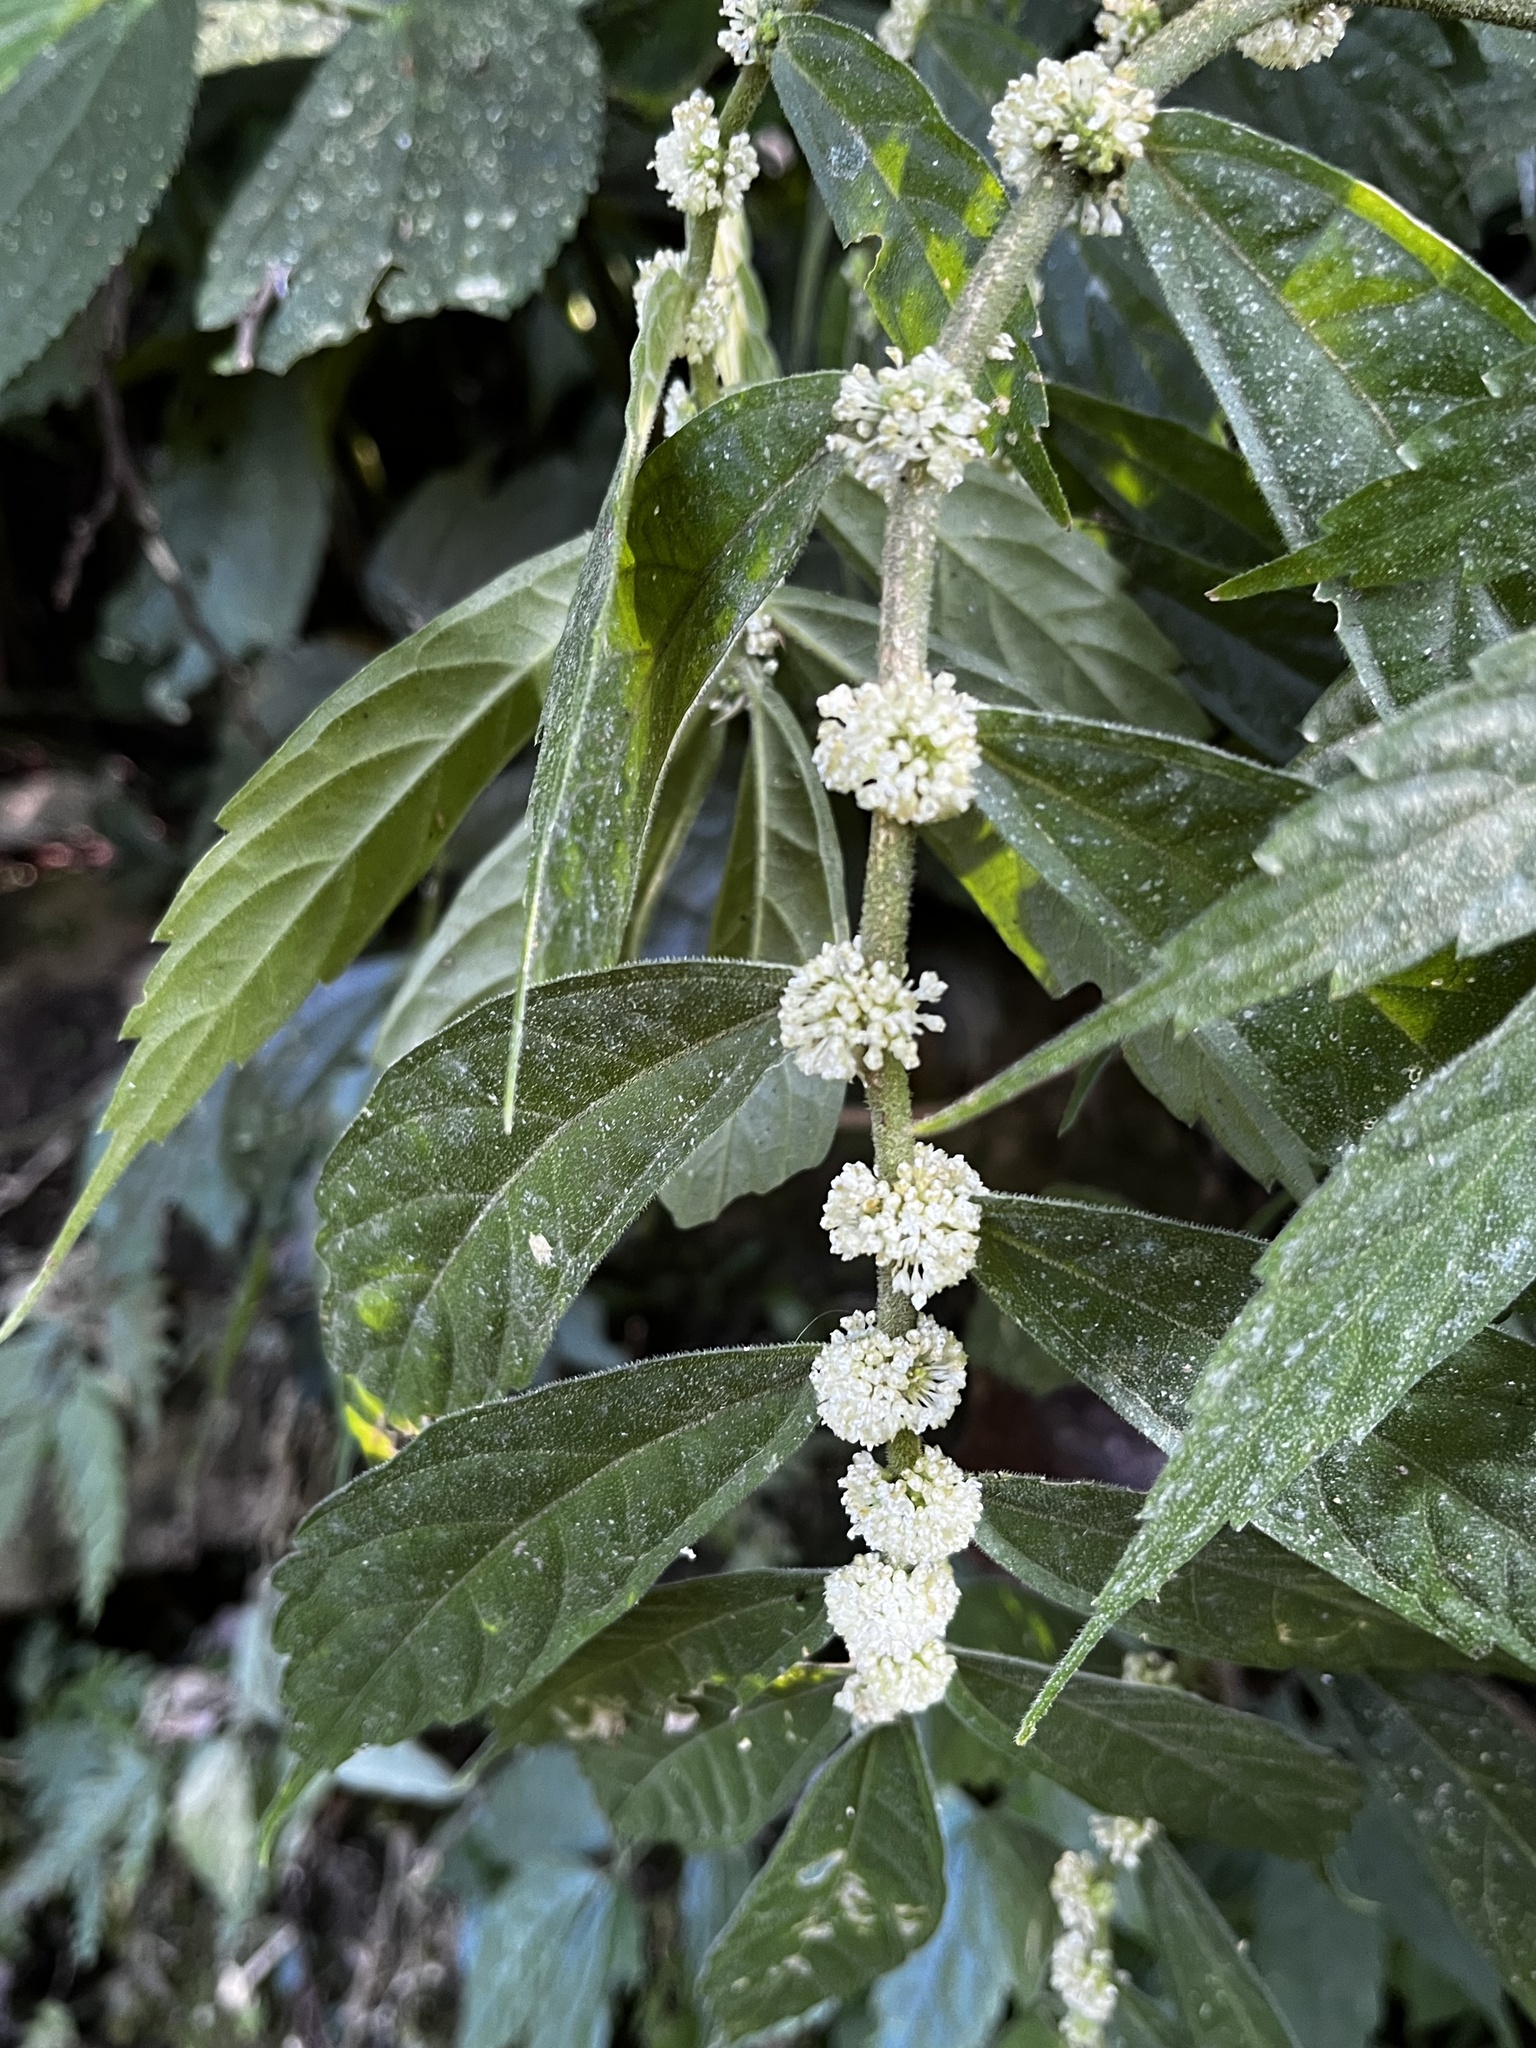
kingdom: Plantae
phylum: Tracheophyta
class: Magnoliopsida
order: Rosales
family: Urticaceae
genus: Elatostema
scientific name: Elatostema lineolatum
